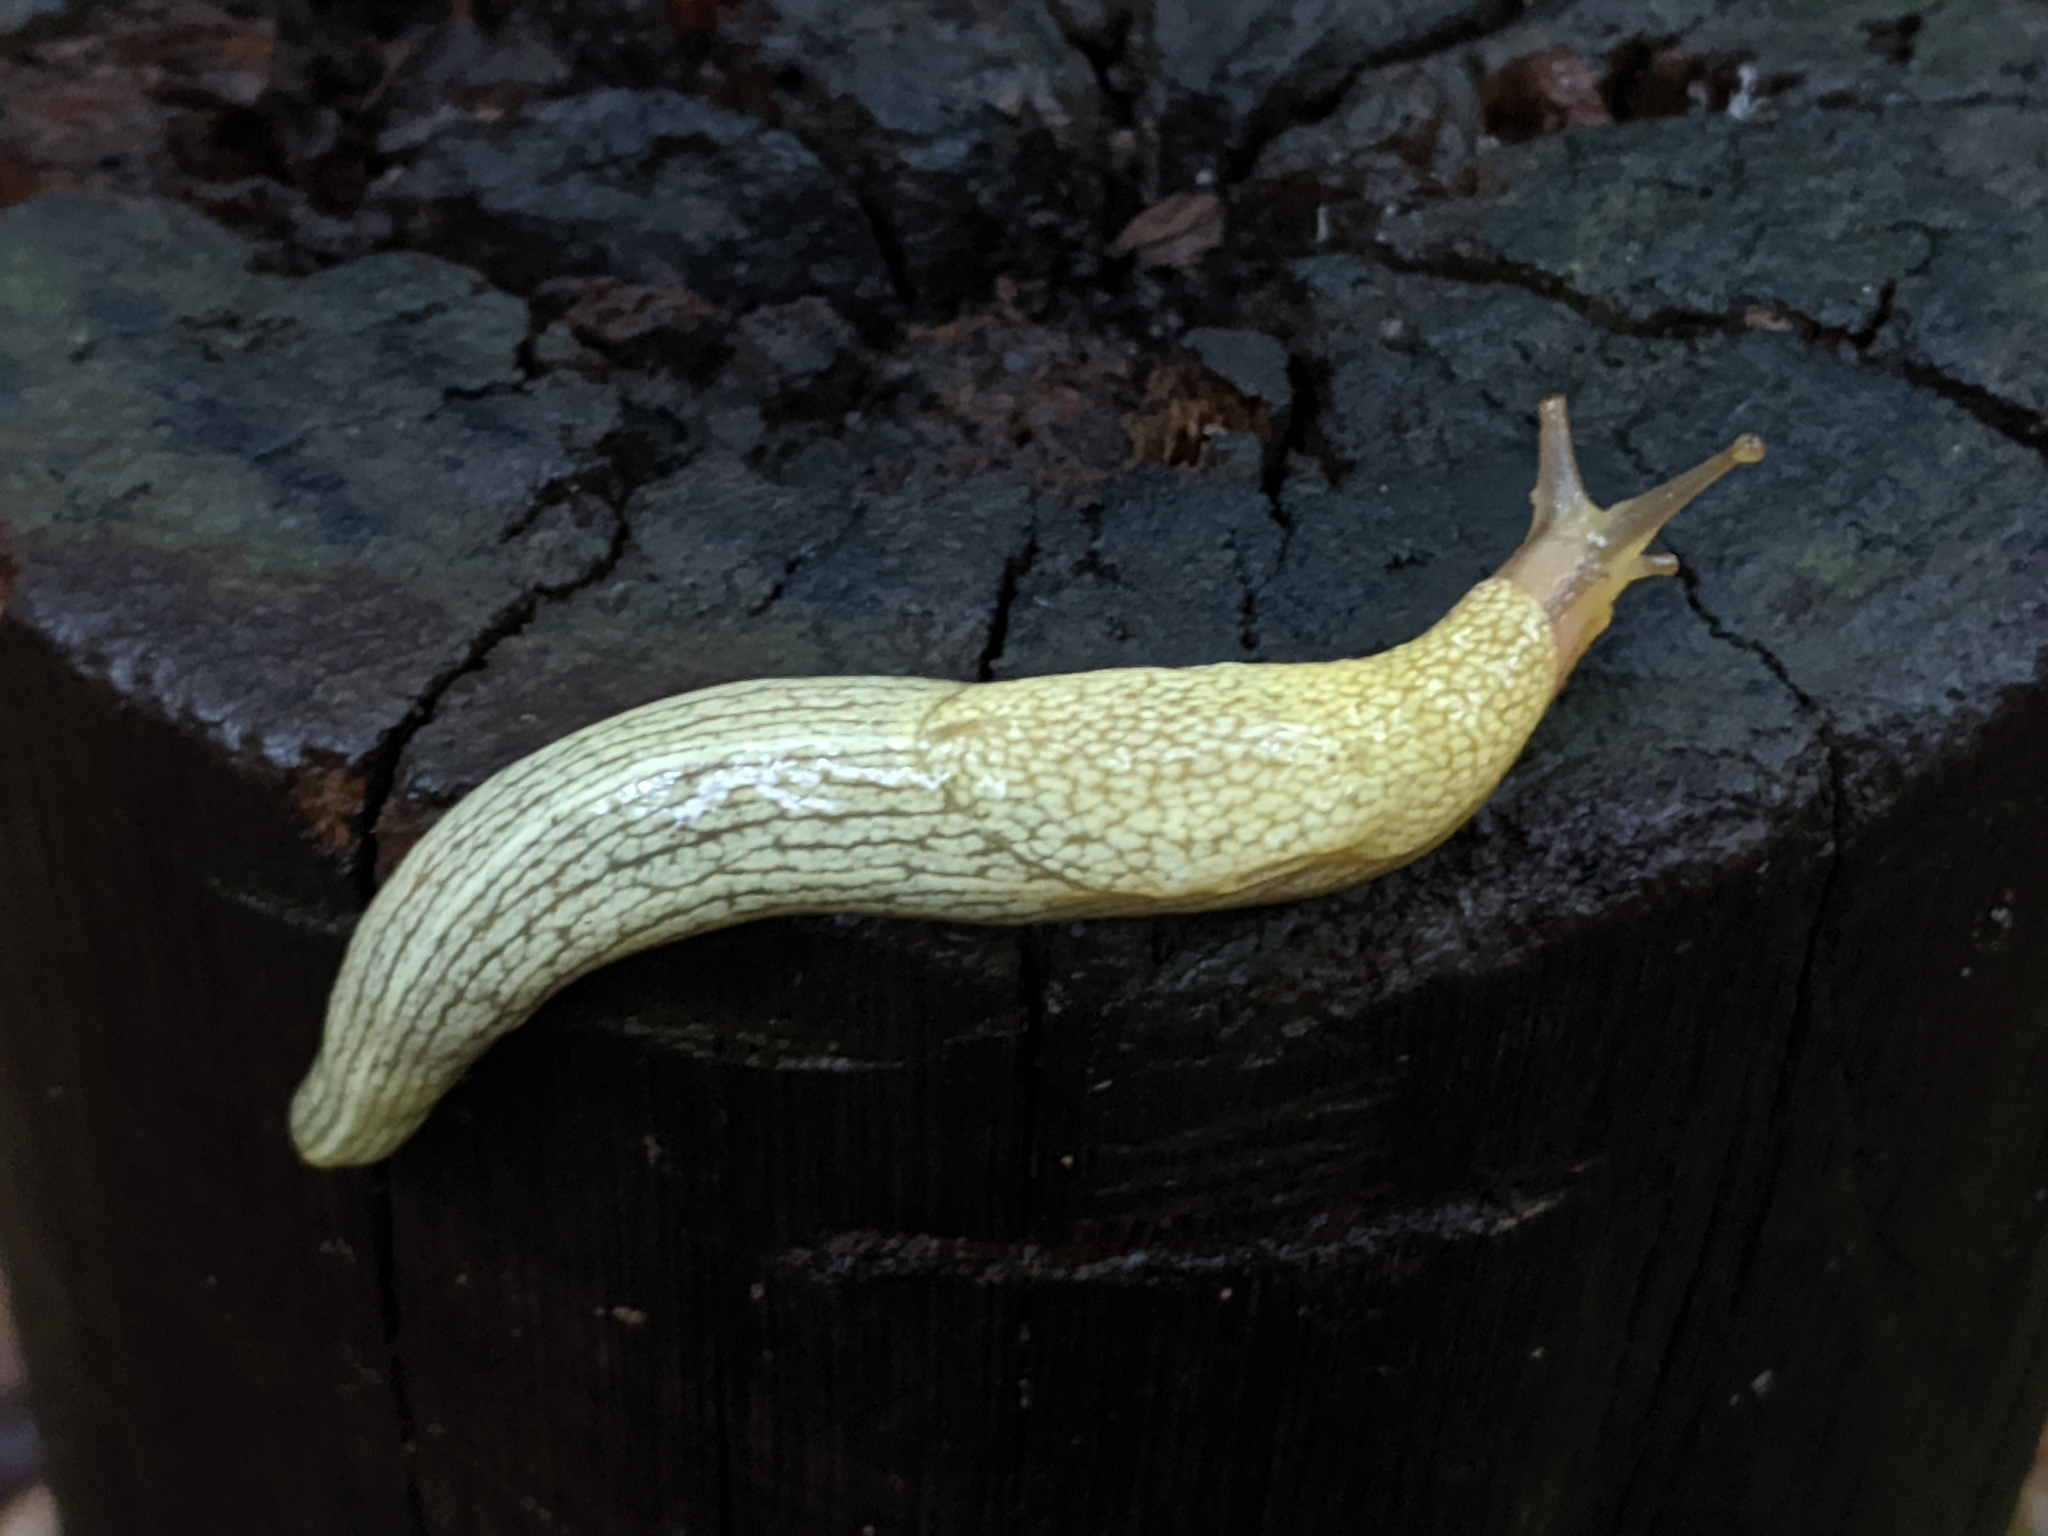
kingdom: Animalia
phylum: Mollusca
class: Gastropoda
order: Stylommatophora
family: Urocyclidae
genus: Elisolimax
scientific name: Elisolimax flavescens
